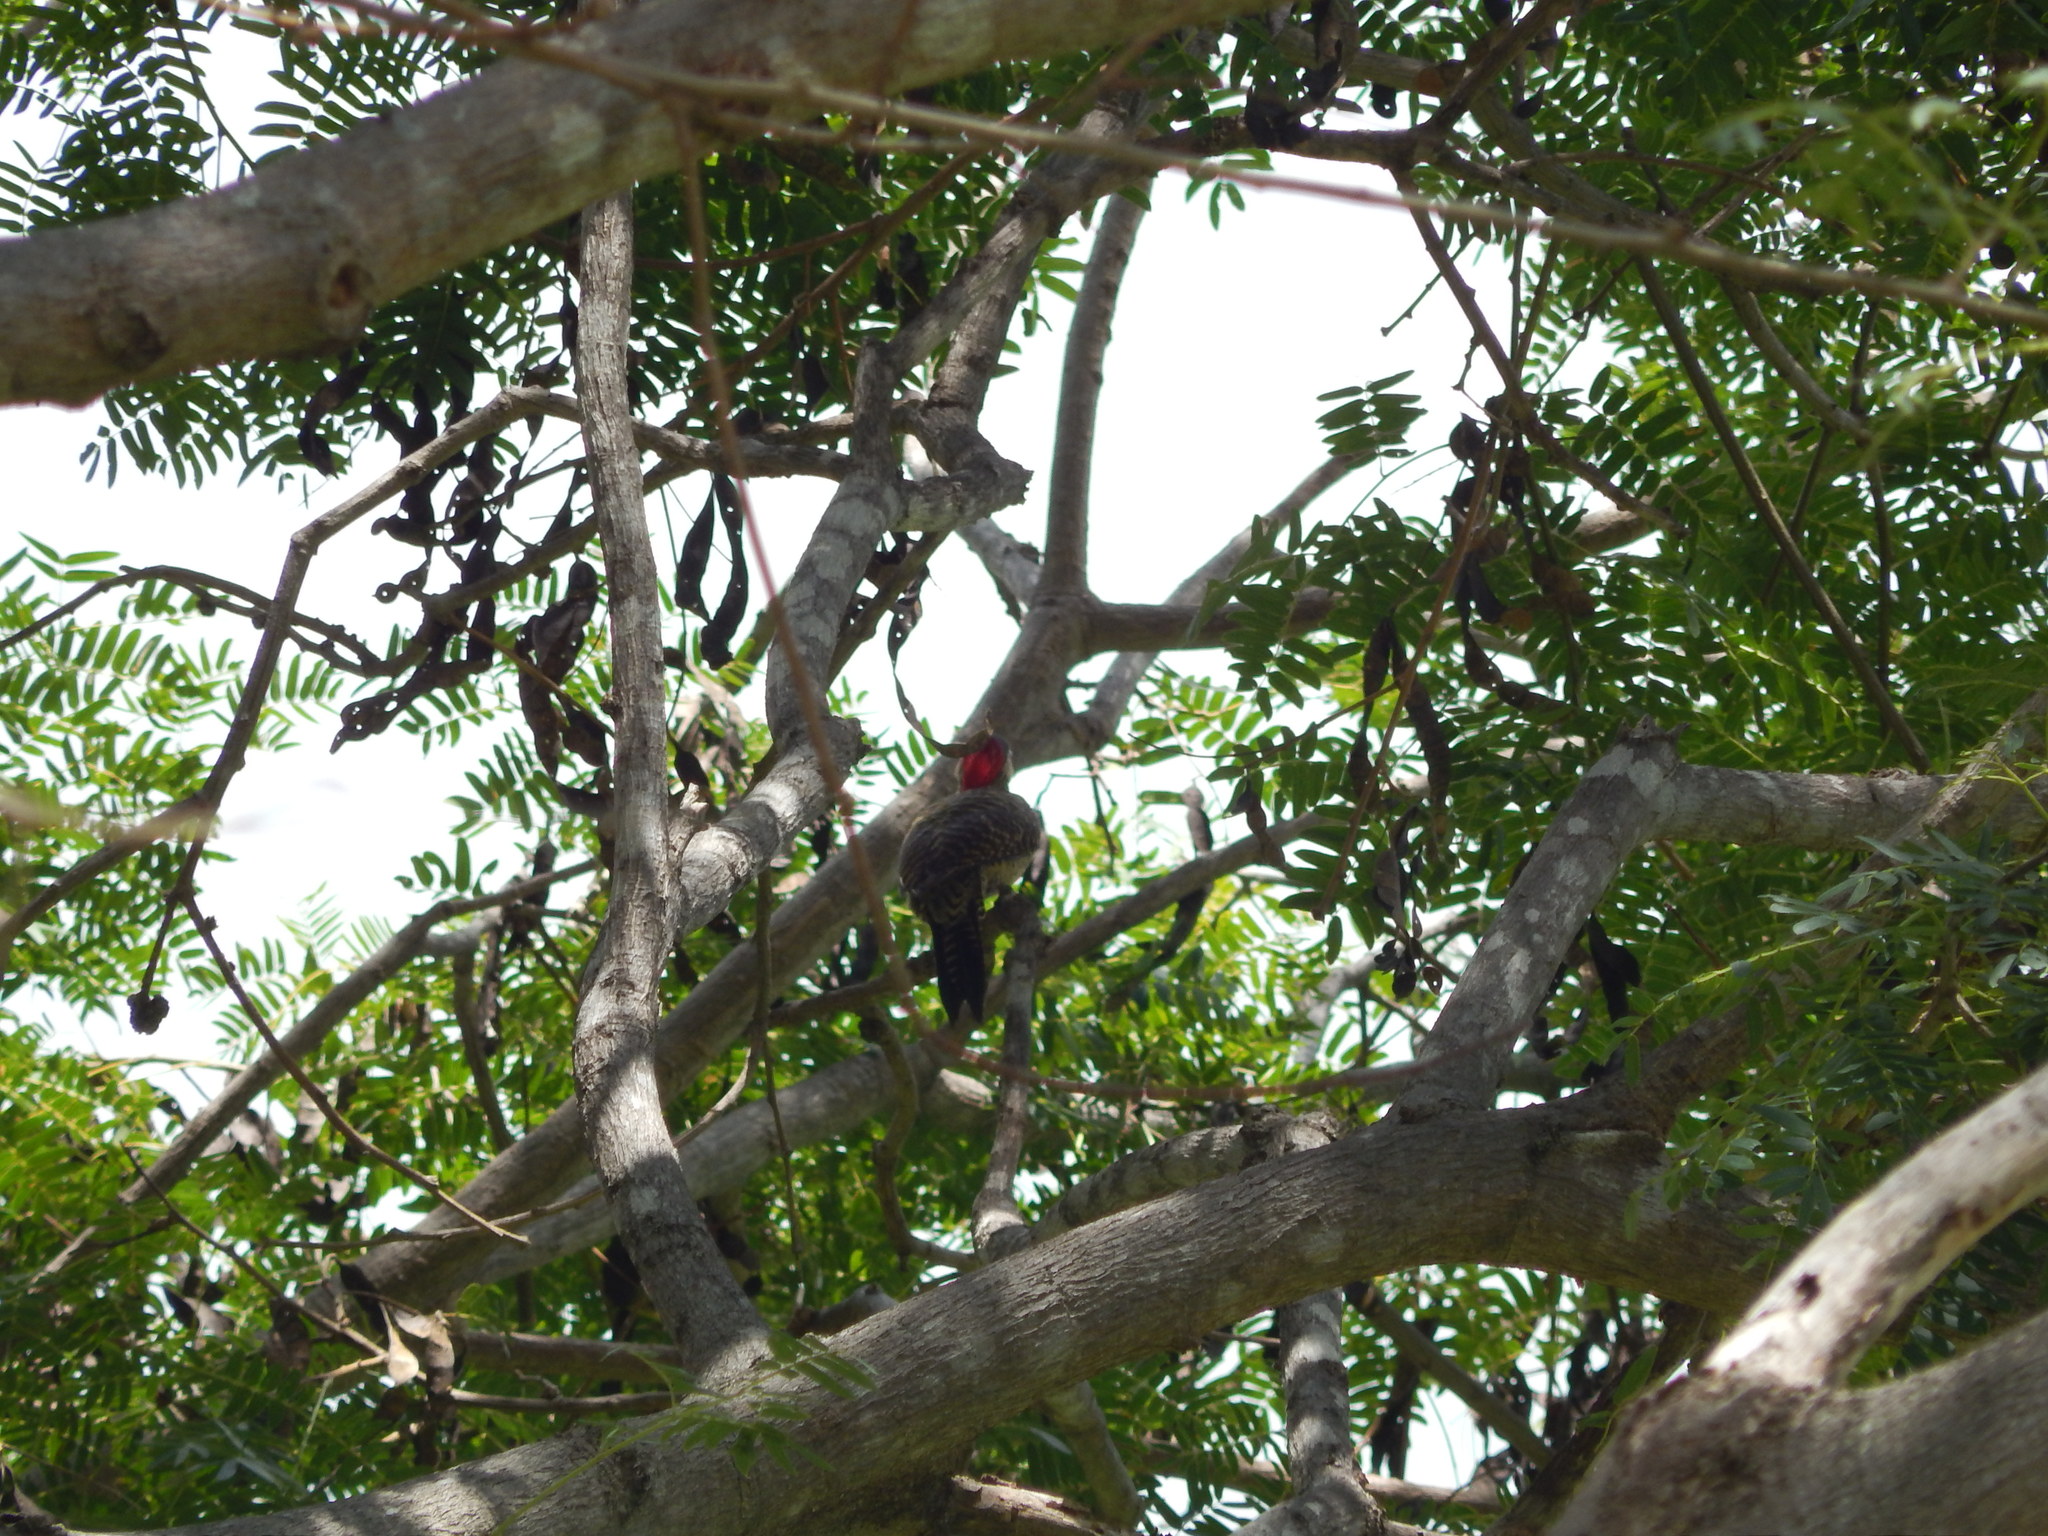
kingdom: Animalia
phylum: Chordata
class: Aves
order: Piciformes
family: Picidae
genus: Colaptes
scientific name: Colaptes melanochloros
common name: Green-barred woodpecker
